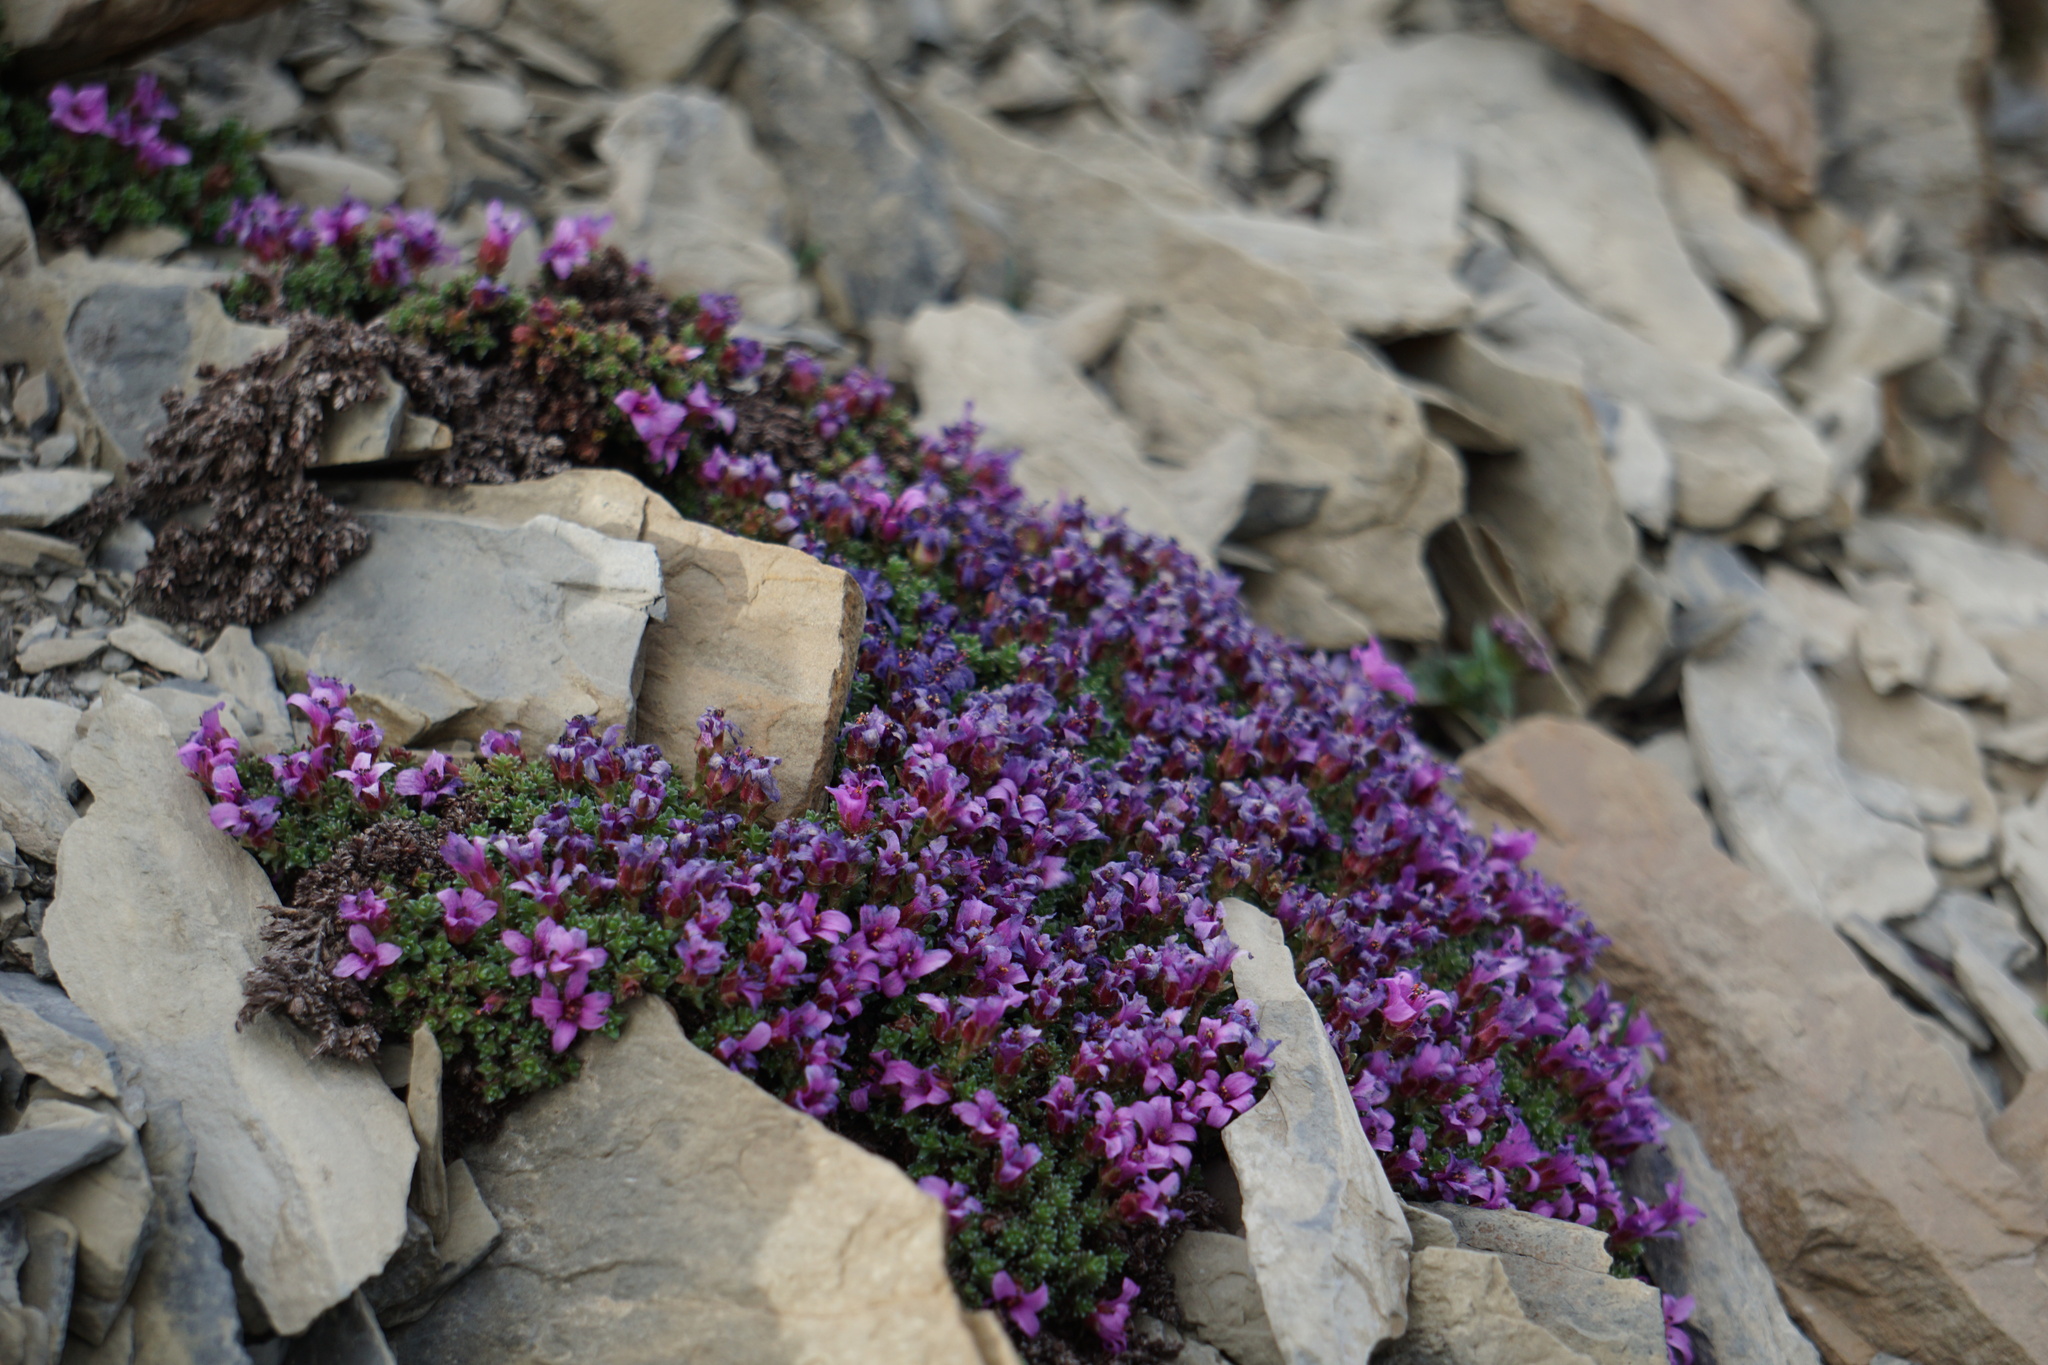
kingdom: Plantae
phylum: Tracheophyta
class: Magnoliopsida
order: Saxifragales
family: Saxifragaceae
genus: Saxifraga
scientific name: Saxifraga oppositifolia
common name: Purple saxifrage
